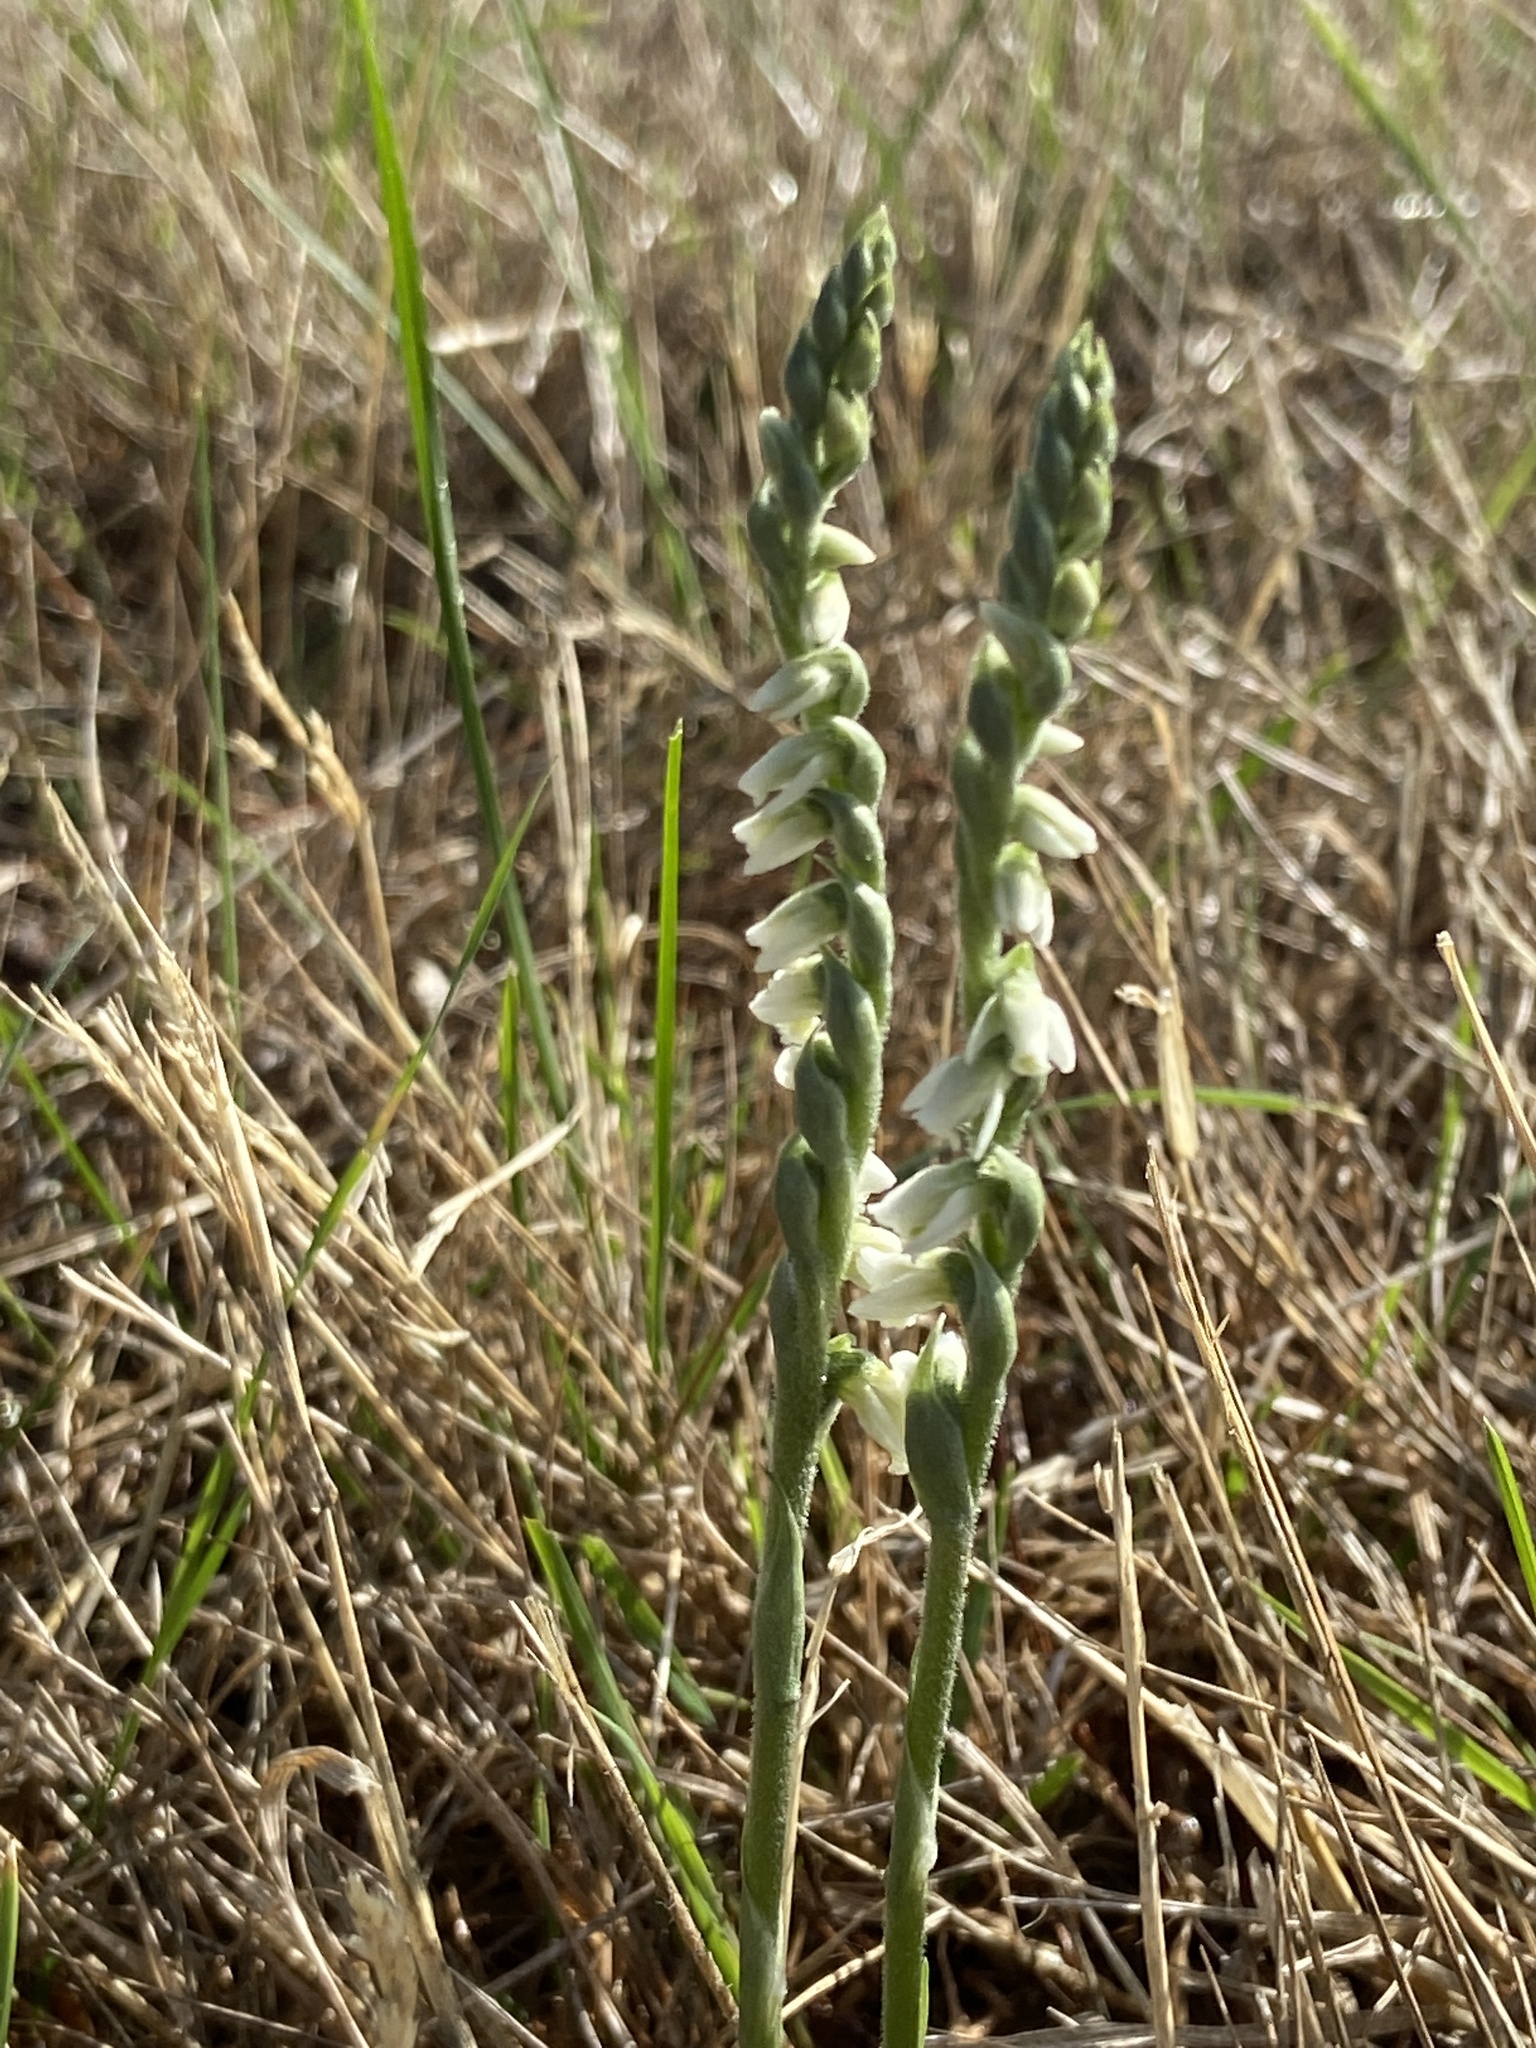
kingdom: Plantae
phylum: Tracheophyta
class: Liliopsida
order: Asparagales
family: Orchidaceae
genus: Spiranthes
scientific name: Spiranthes spiralis
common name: Autumn lady's-tresses
